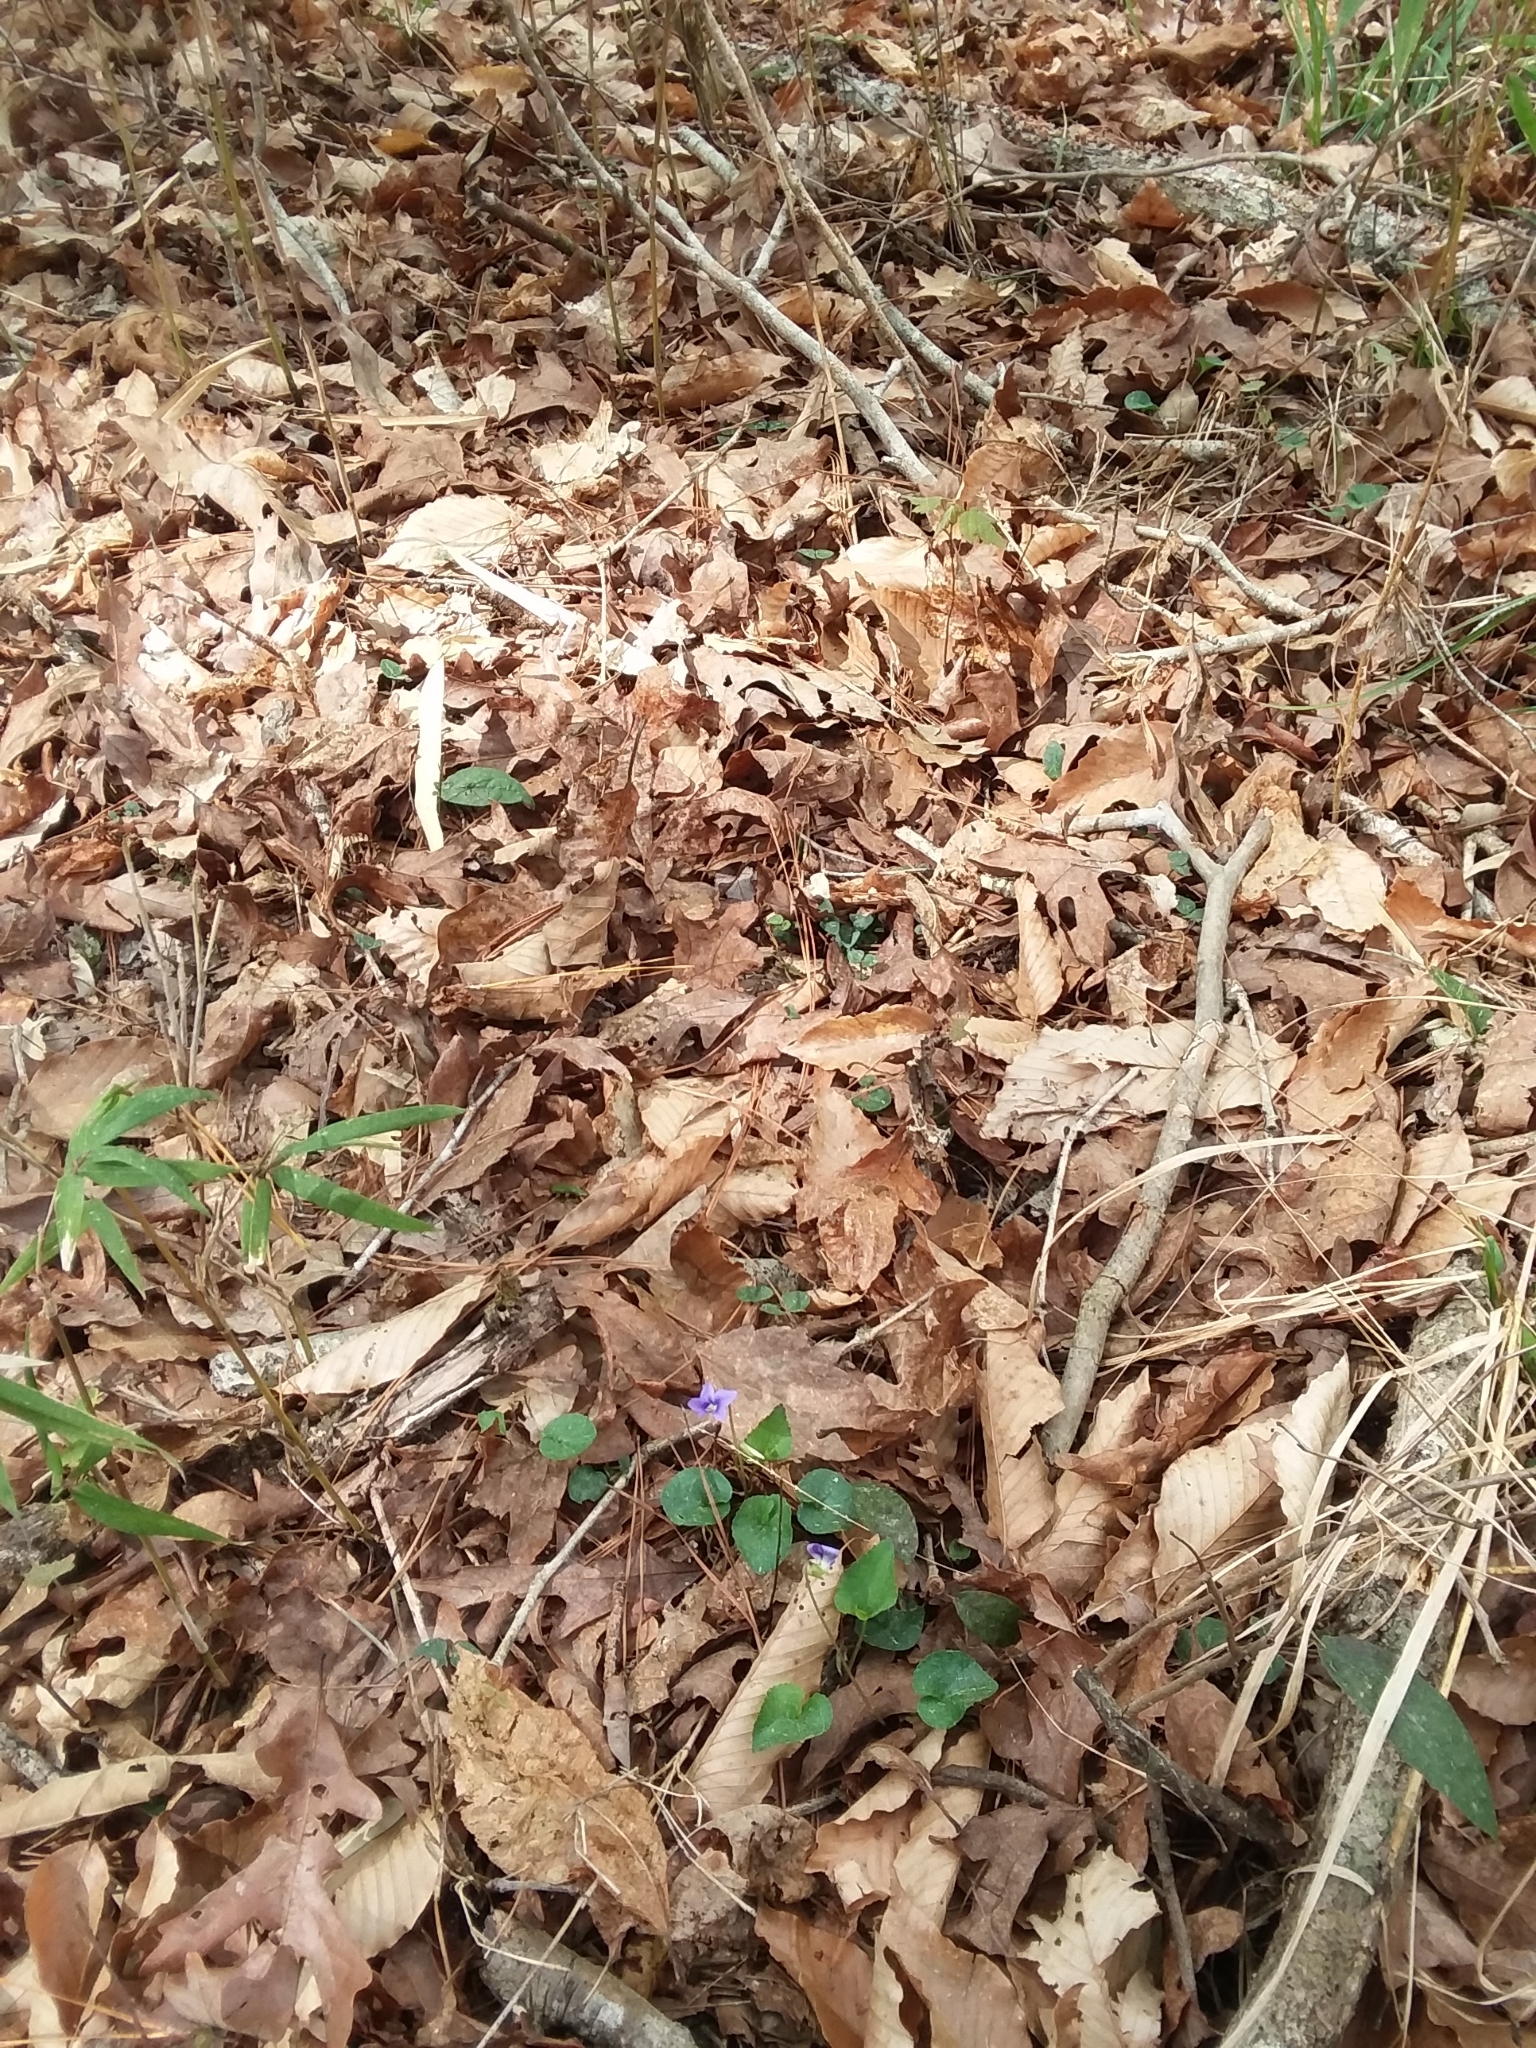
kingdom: Plantae
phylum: Tracheophyta
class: Magnoliopsida
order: Malpighiales
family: Violaceae
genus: Viola
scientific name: Viola sororia
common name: Dooryard violet
